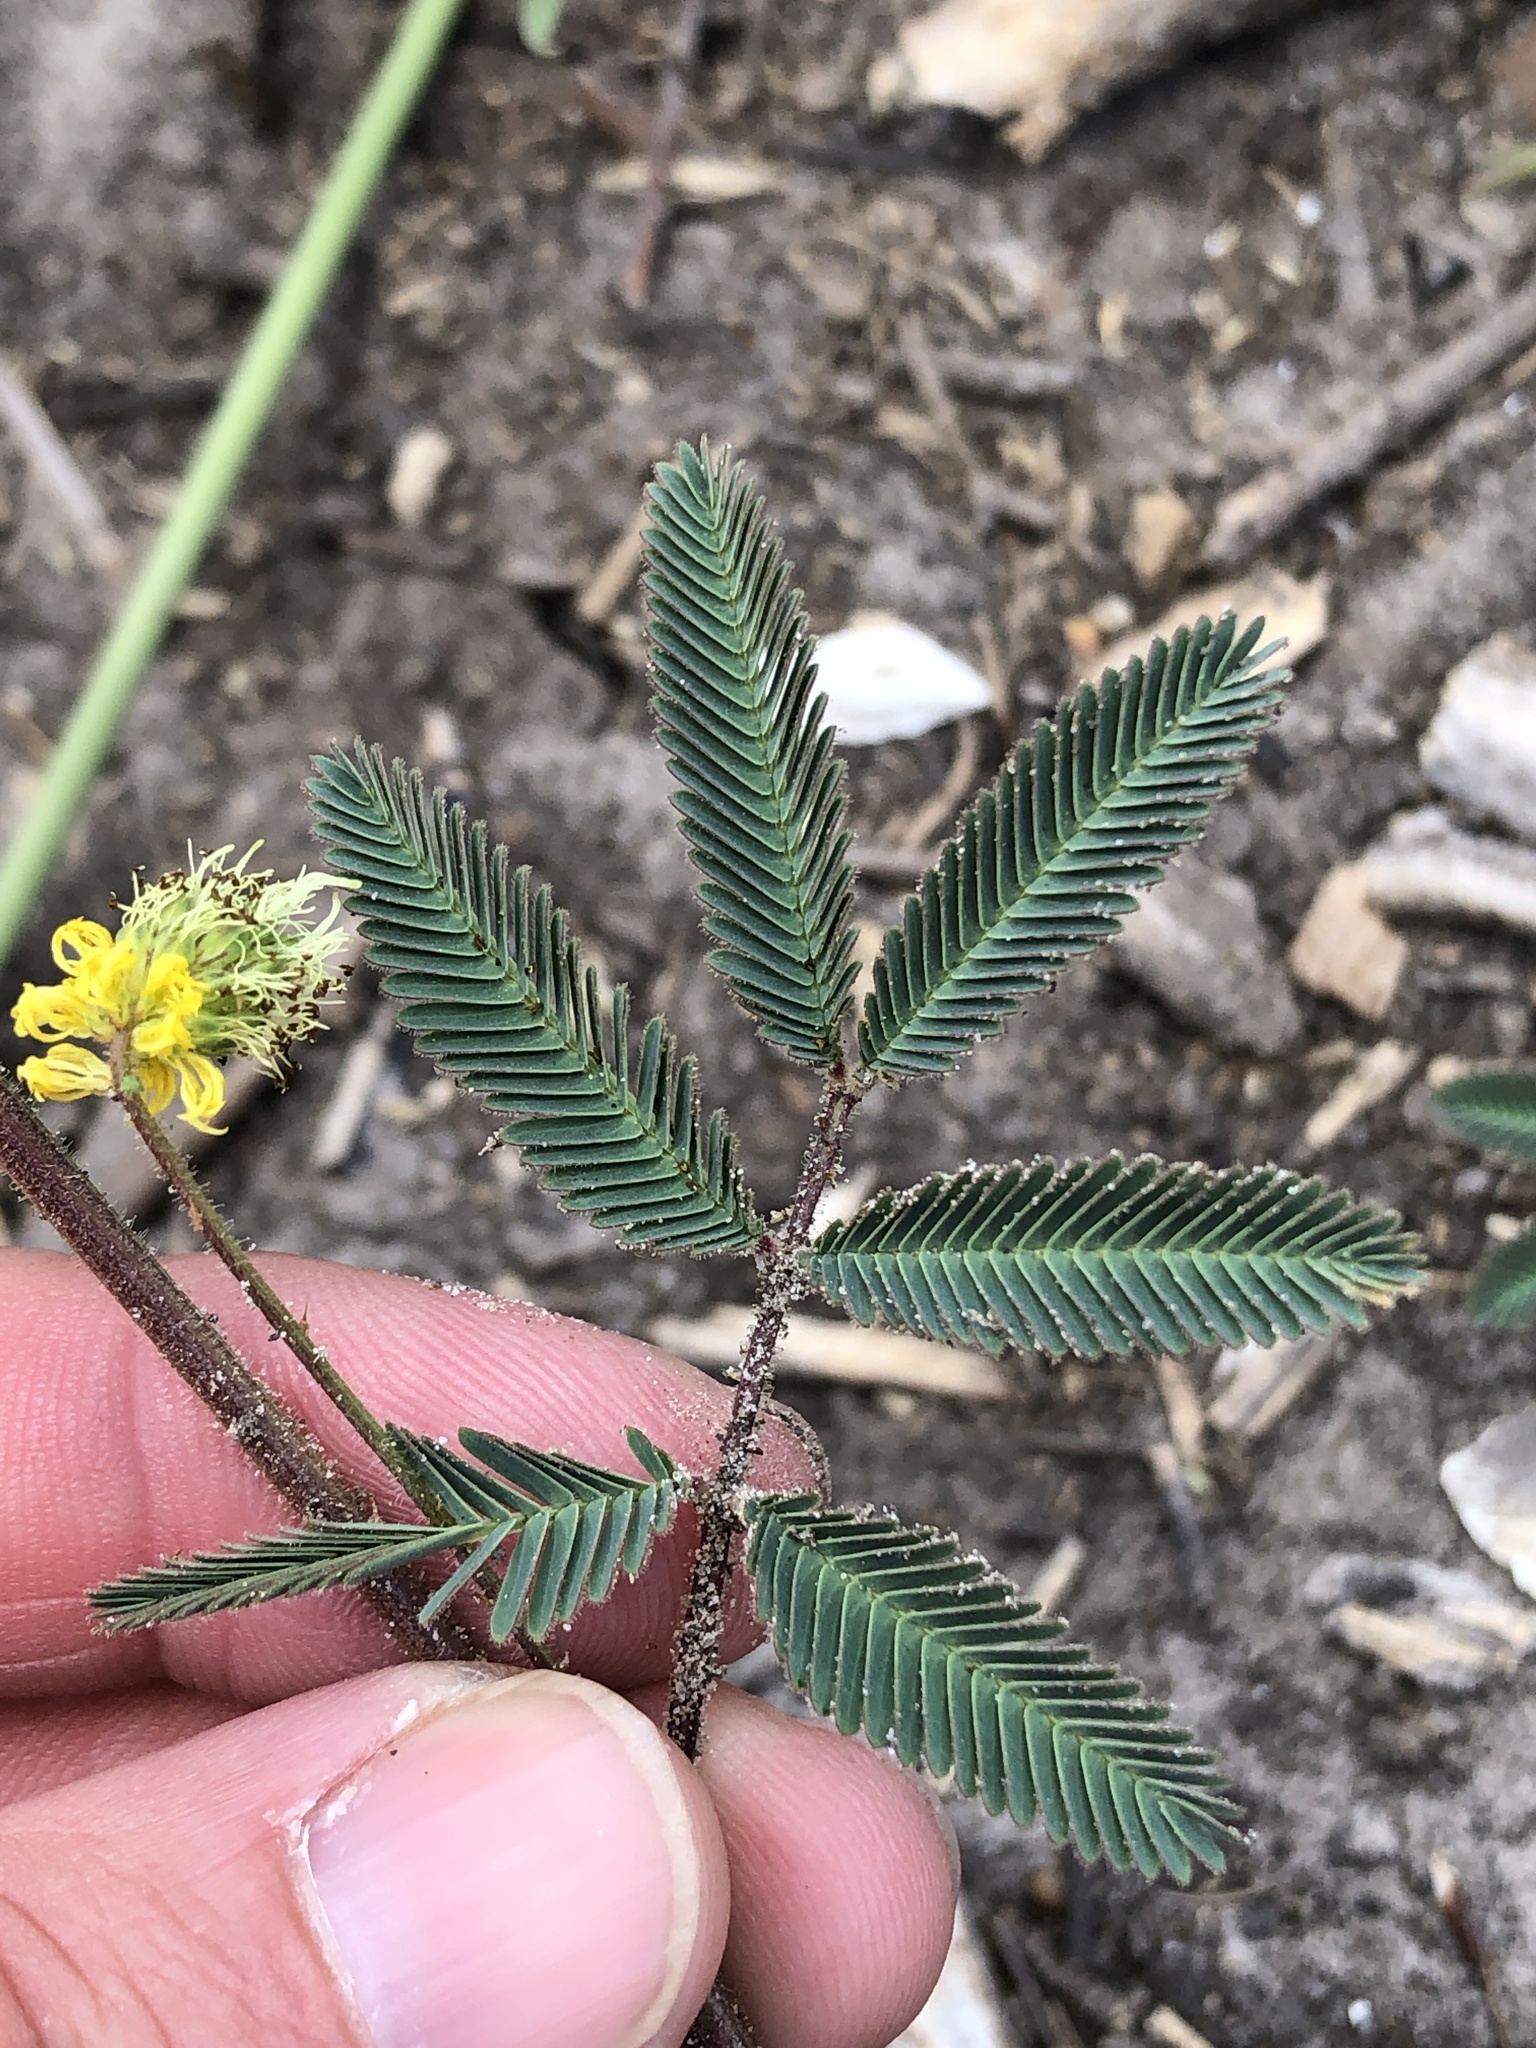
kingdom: Plantae
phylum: Tracheophyta
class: Magnoliopsida
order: Fabales
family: Fabaceae
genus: Neptunia
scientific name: Neptunia pubescens
